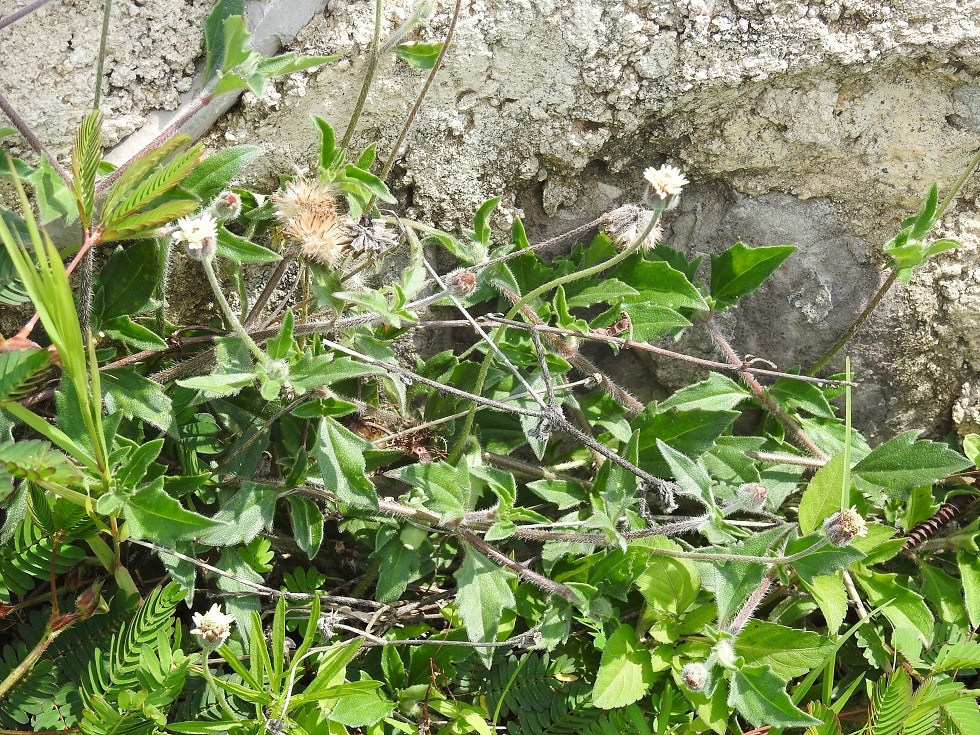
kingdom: Plantae
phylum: Tracheophyta
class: Magnoliopsida
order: Asterales
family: Asteraceae
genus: Tridax
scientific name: Tridax procumbens
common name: Coatbuttons
